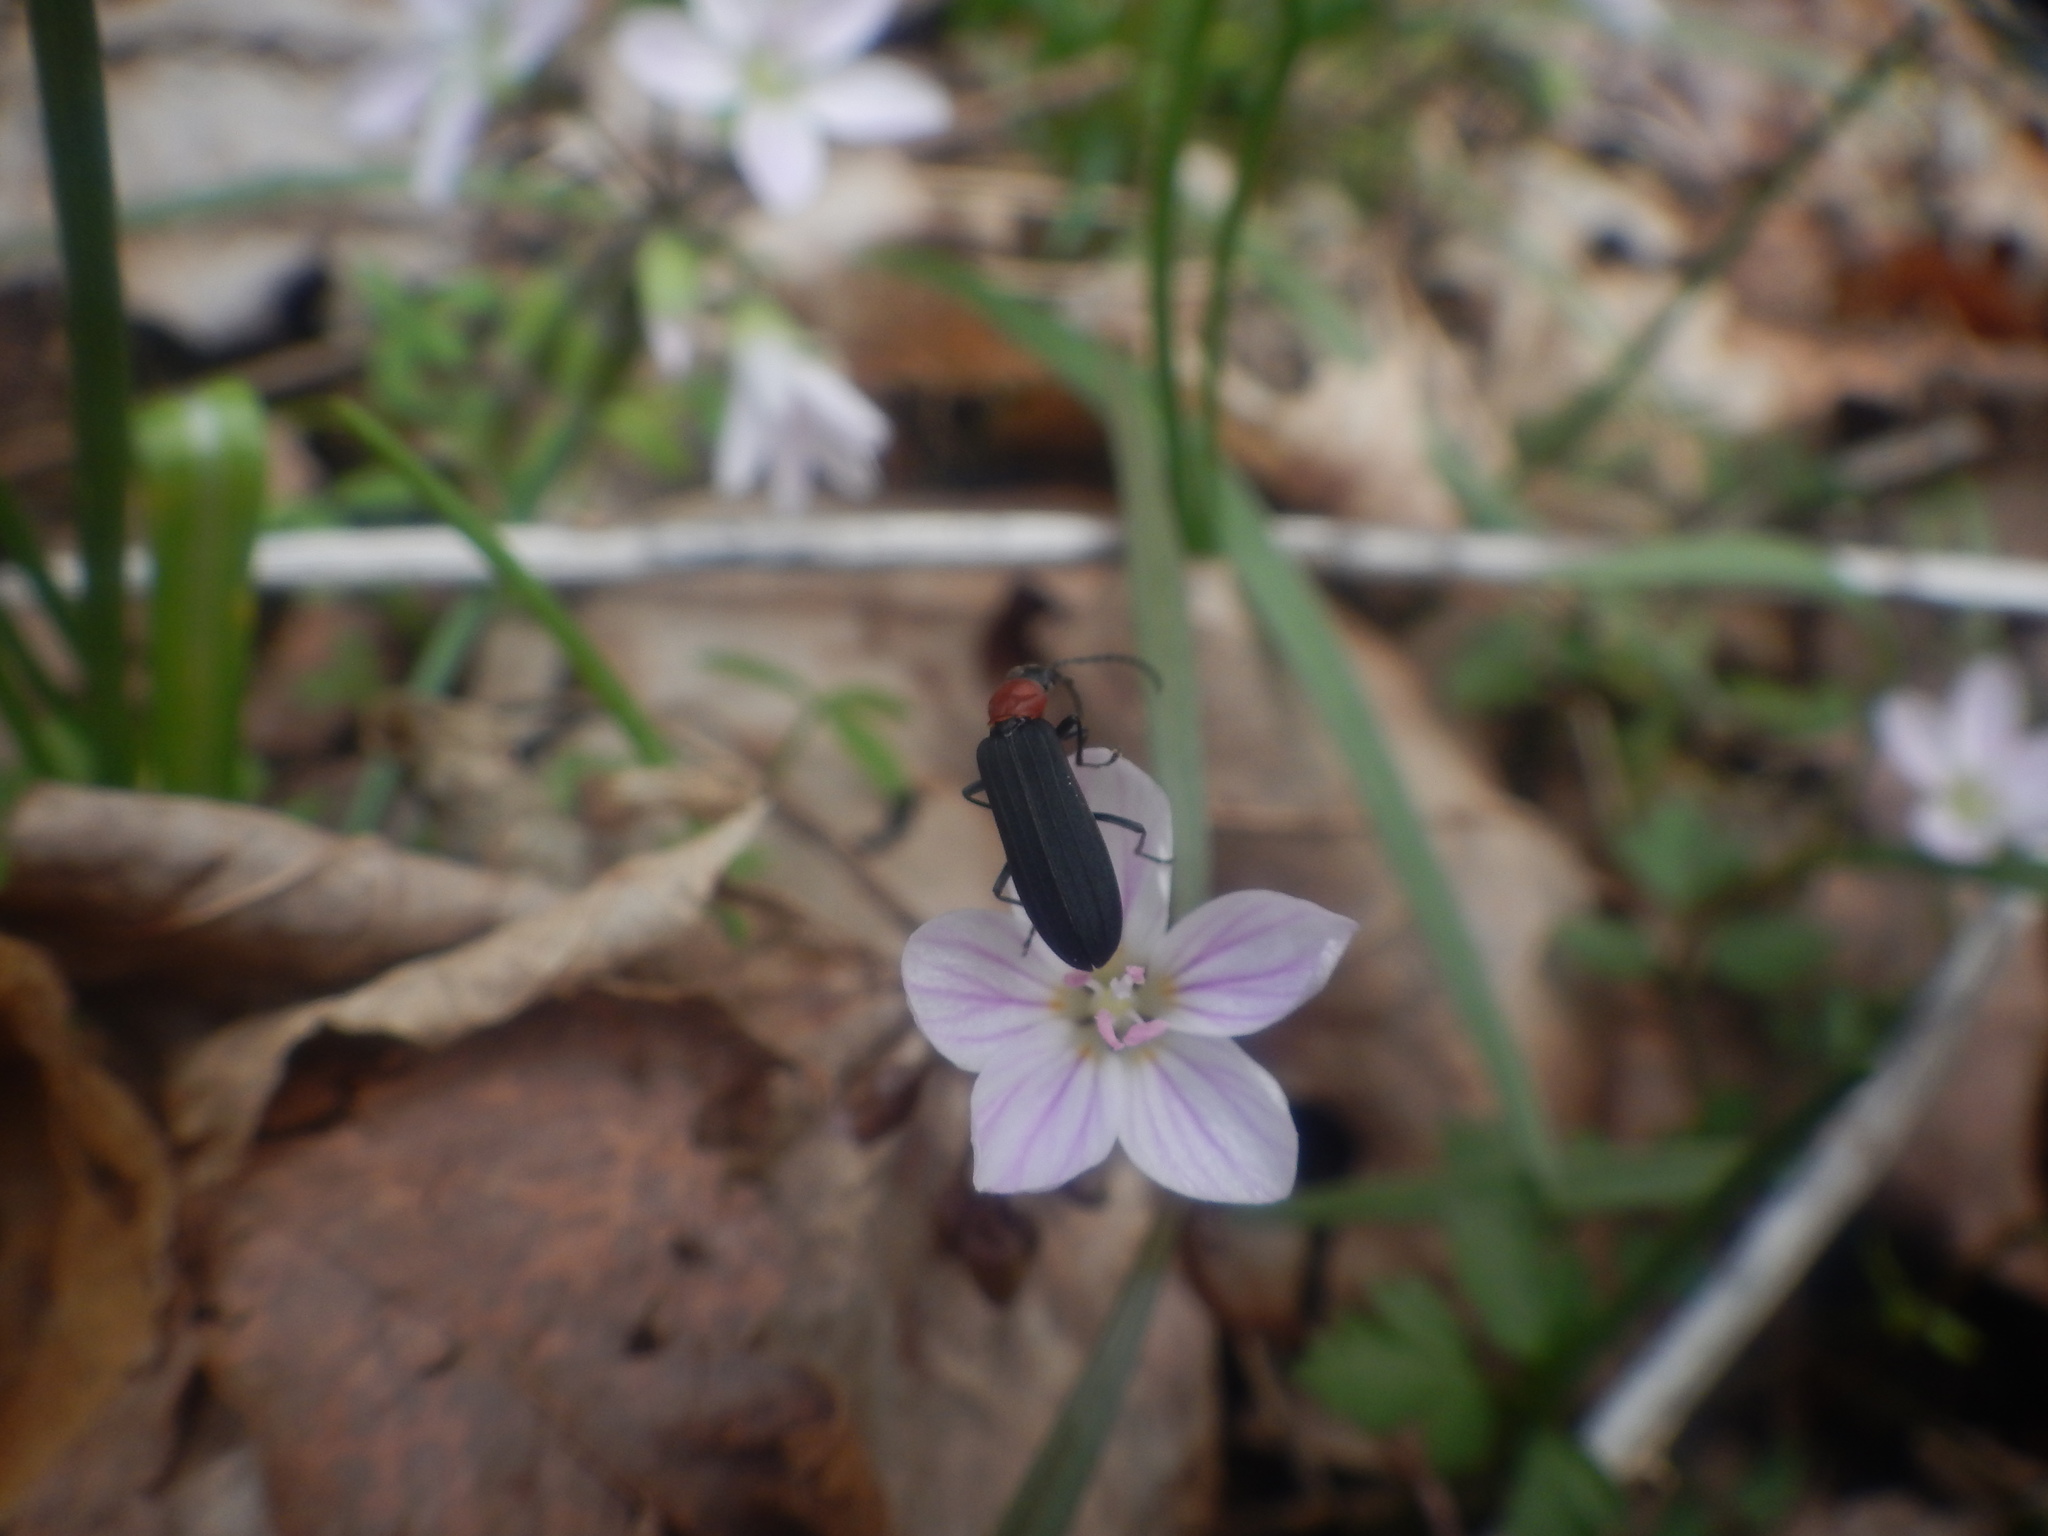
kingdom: Animalia
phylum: Arthropoda
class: Insecta
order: Coleoptera
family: Oedemeridae
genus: Ischnomera
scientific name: Ischnomera
